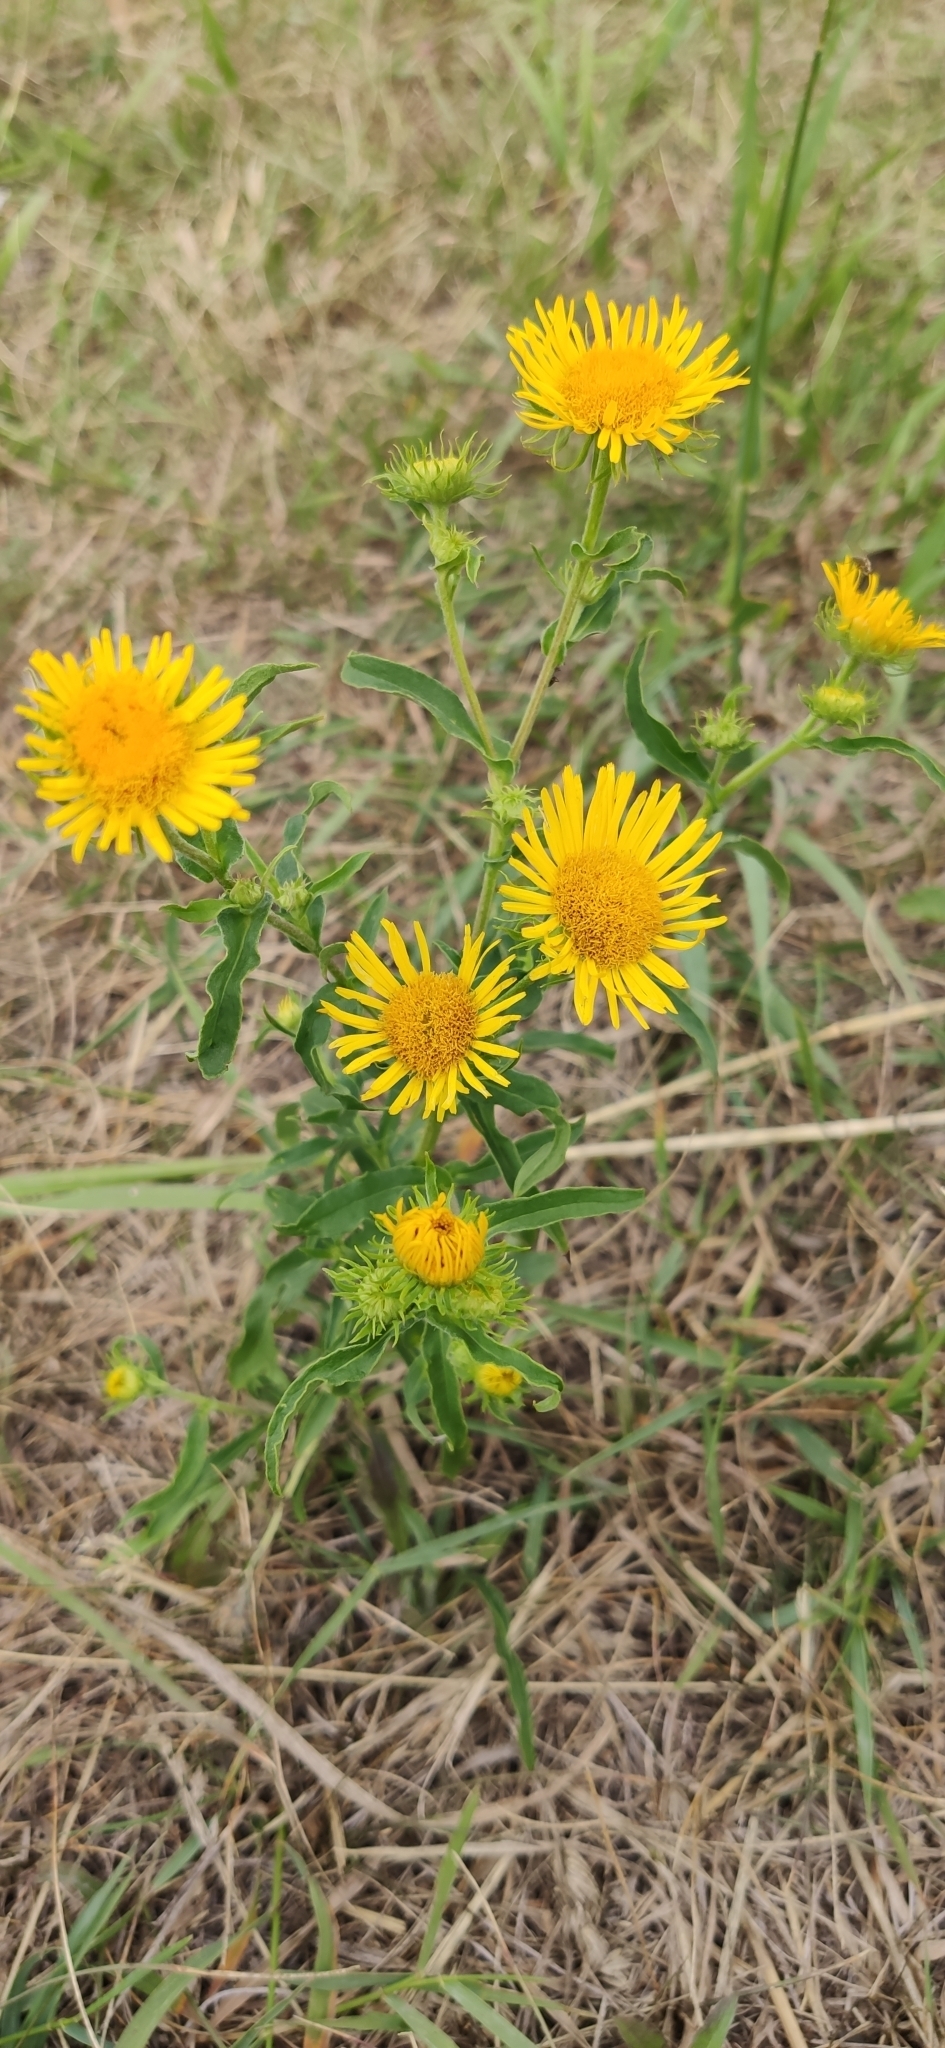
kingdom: Plantae
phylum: Tracheophyta
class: Magnoliopsida
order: Asterales
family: Asteraceae
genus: Pentanema
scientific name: Pentanema britannicum
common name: British elecampane
